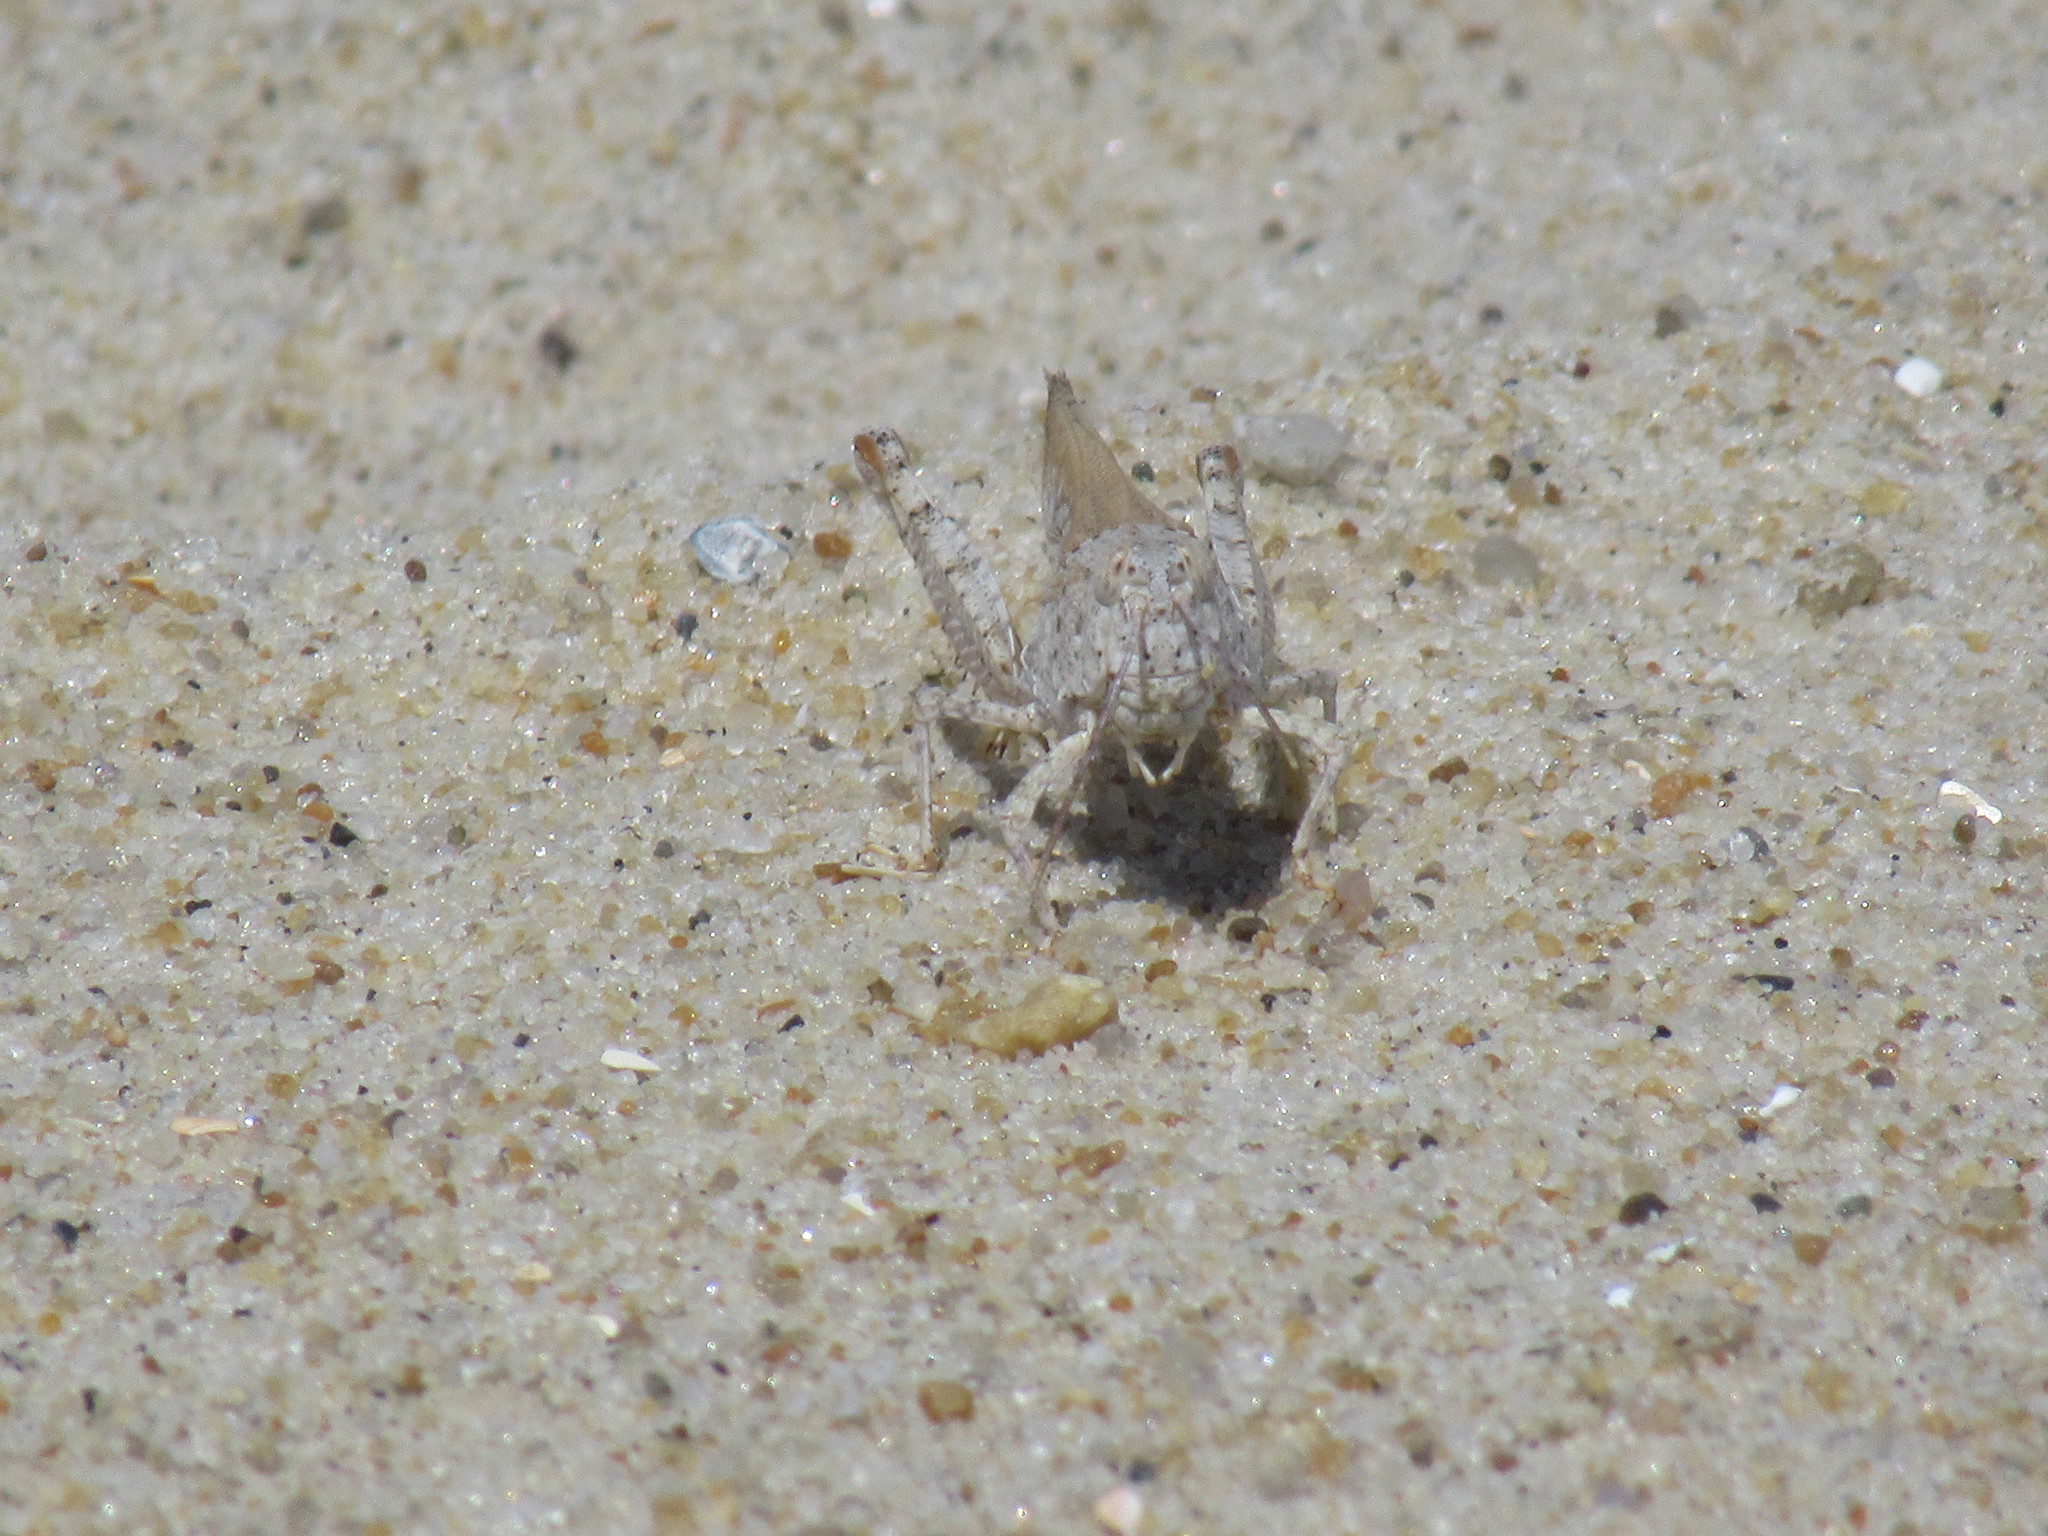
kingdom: Animalia
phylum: Arthropoda
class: Insecta
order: Orthoptera
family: Acrididae
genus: Trimerotropis
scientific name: Trimerotropis maritima
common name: Seaside locust
